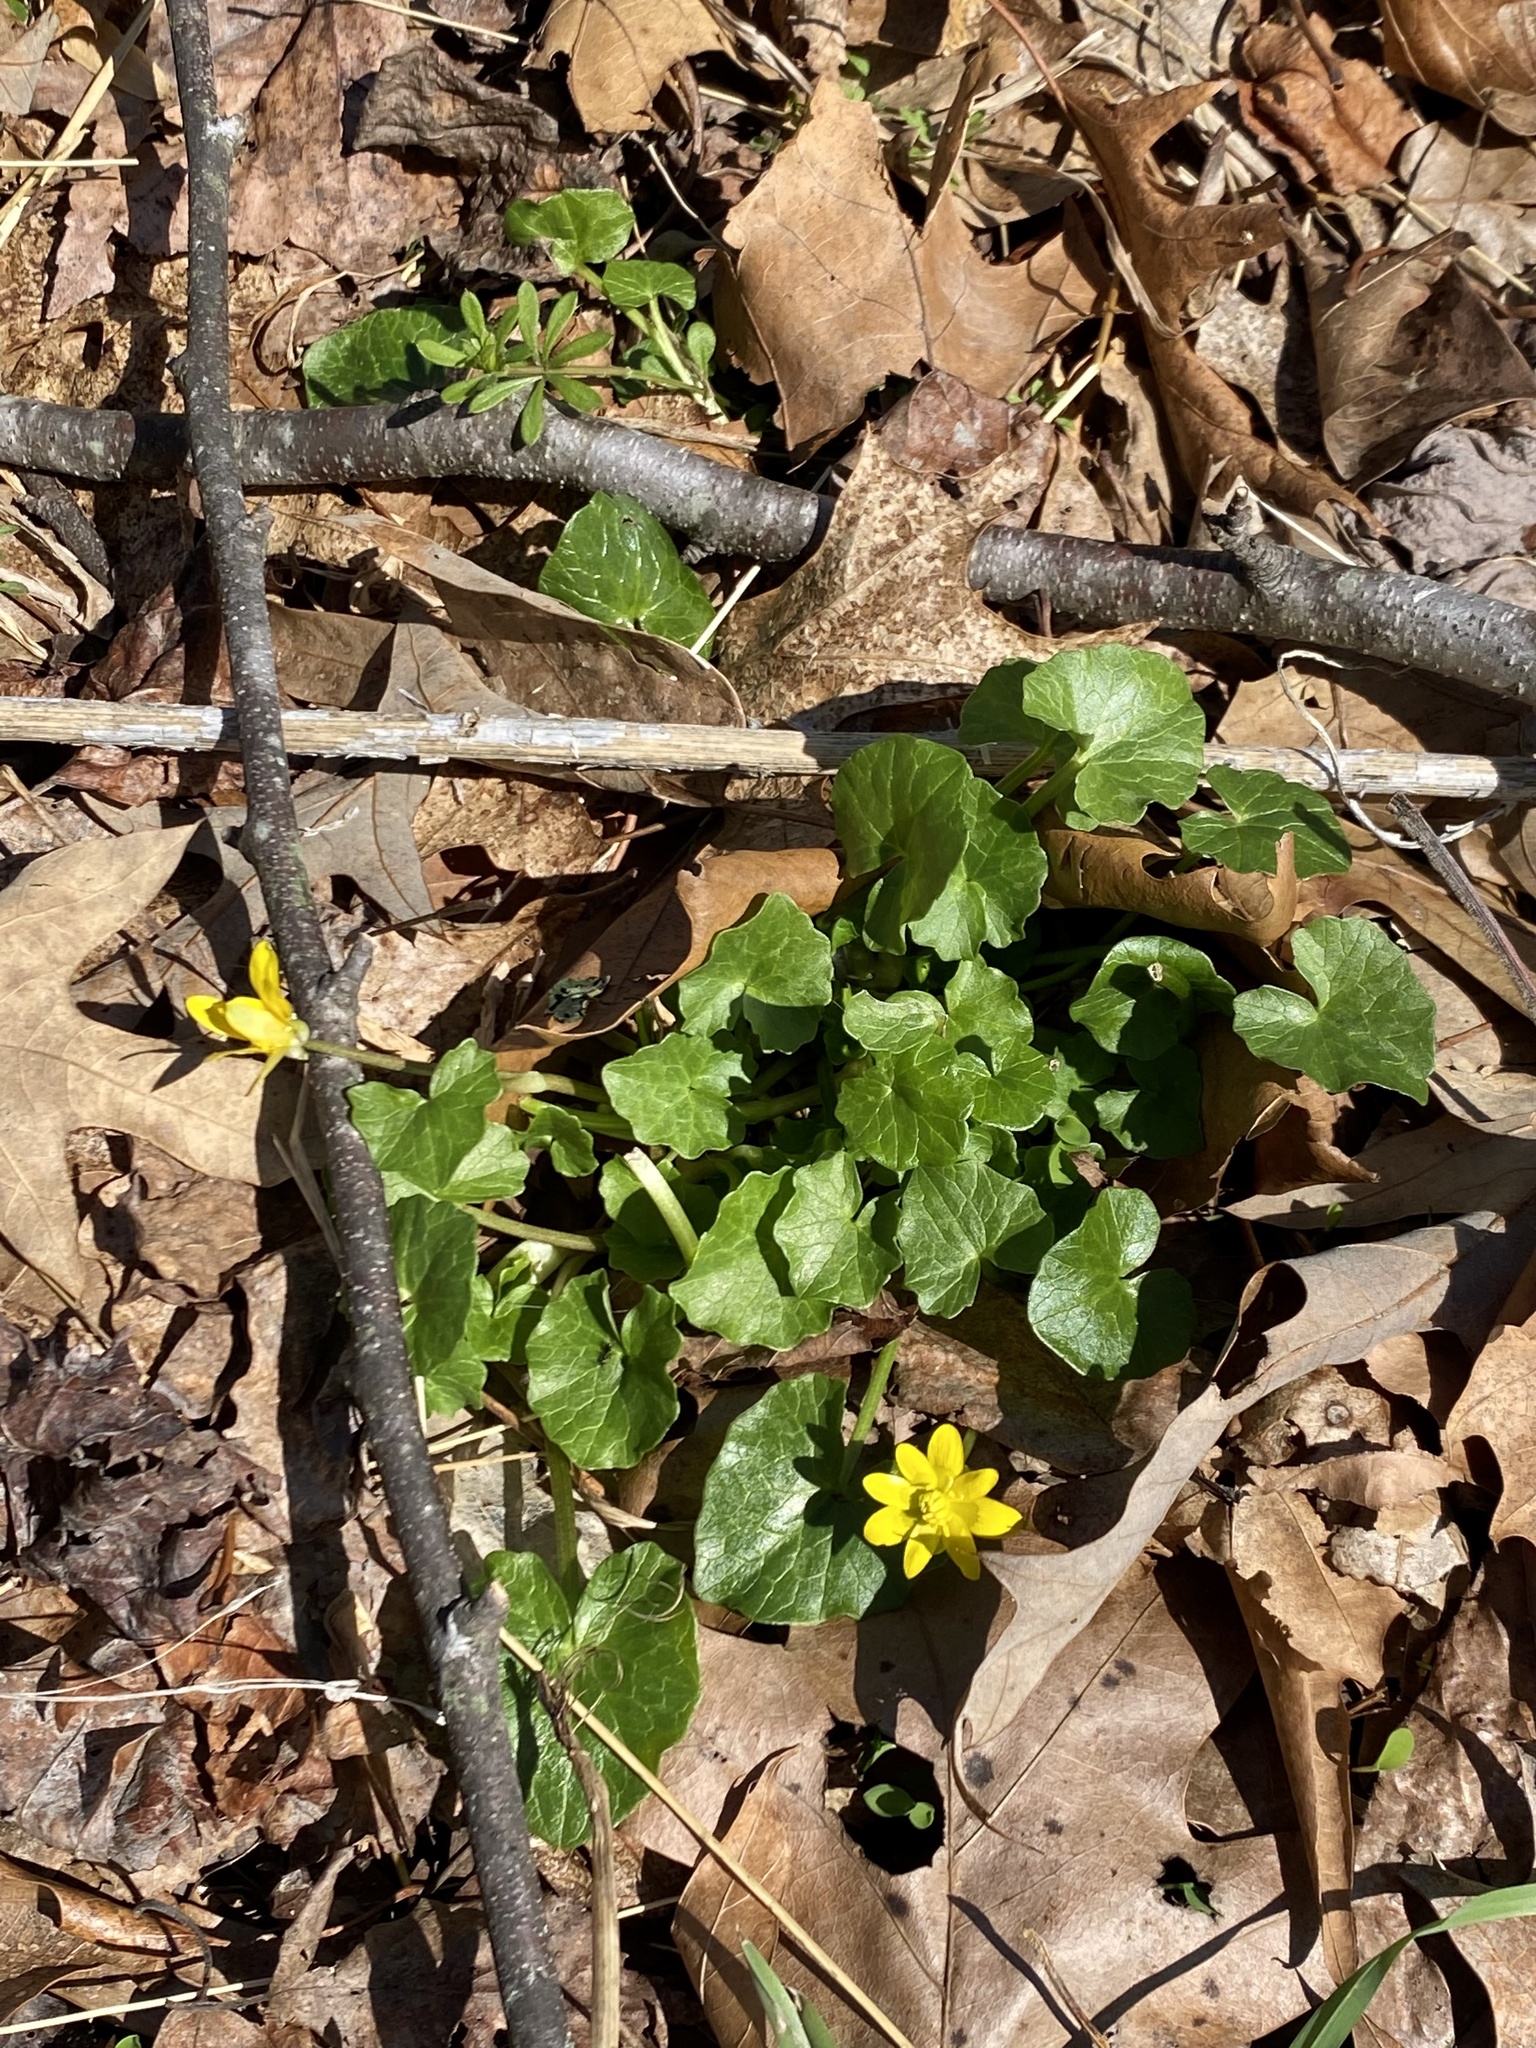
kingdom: Plantae
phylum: Tracheophyta
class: Magnoliopsida
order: Ranunculales
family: Ranunculaceae
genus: Ficaria
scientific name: Ficaria verna
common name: Lesser celandine
